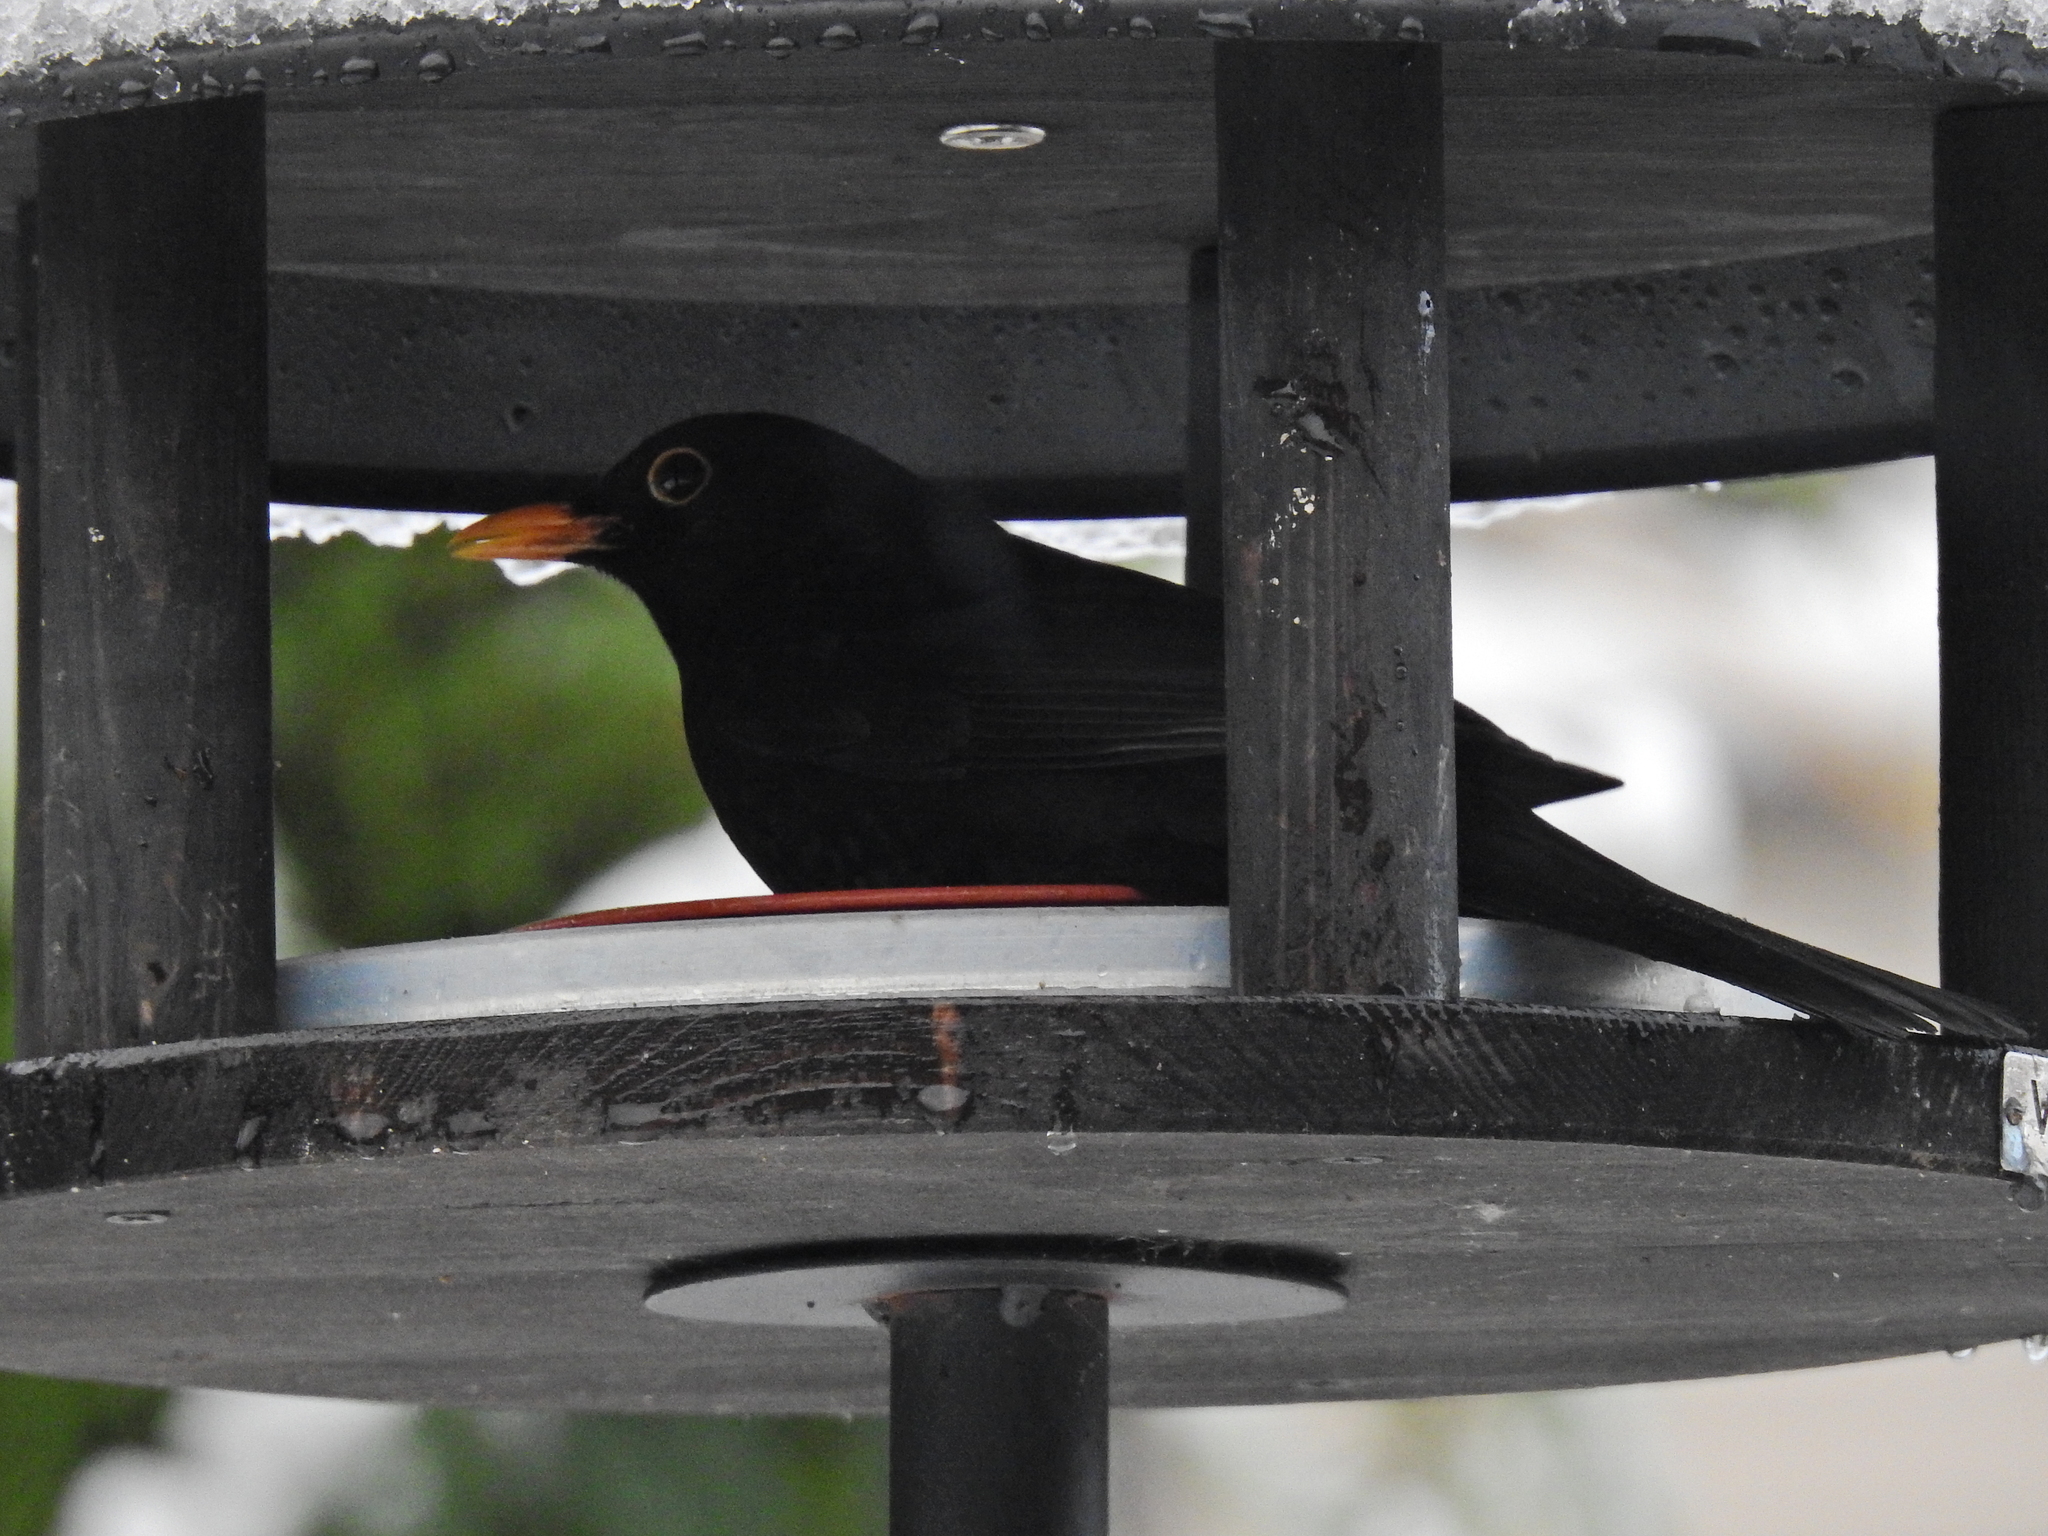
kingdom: Animalia
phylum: Chordata
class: Aves
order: Passeriformes
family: Turdidae
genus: Turdus
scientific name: Turdus merula
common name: Common blackbird
